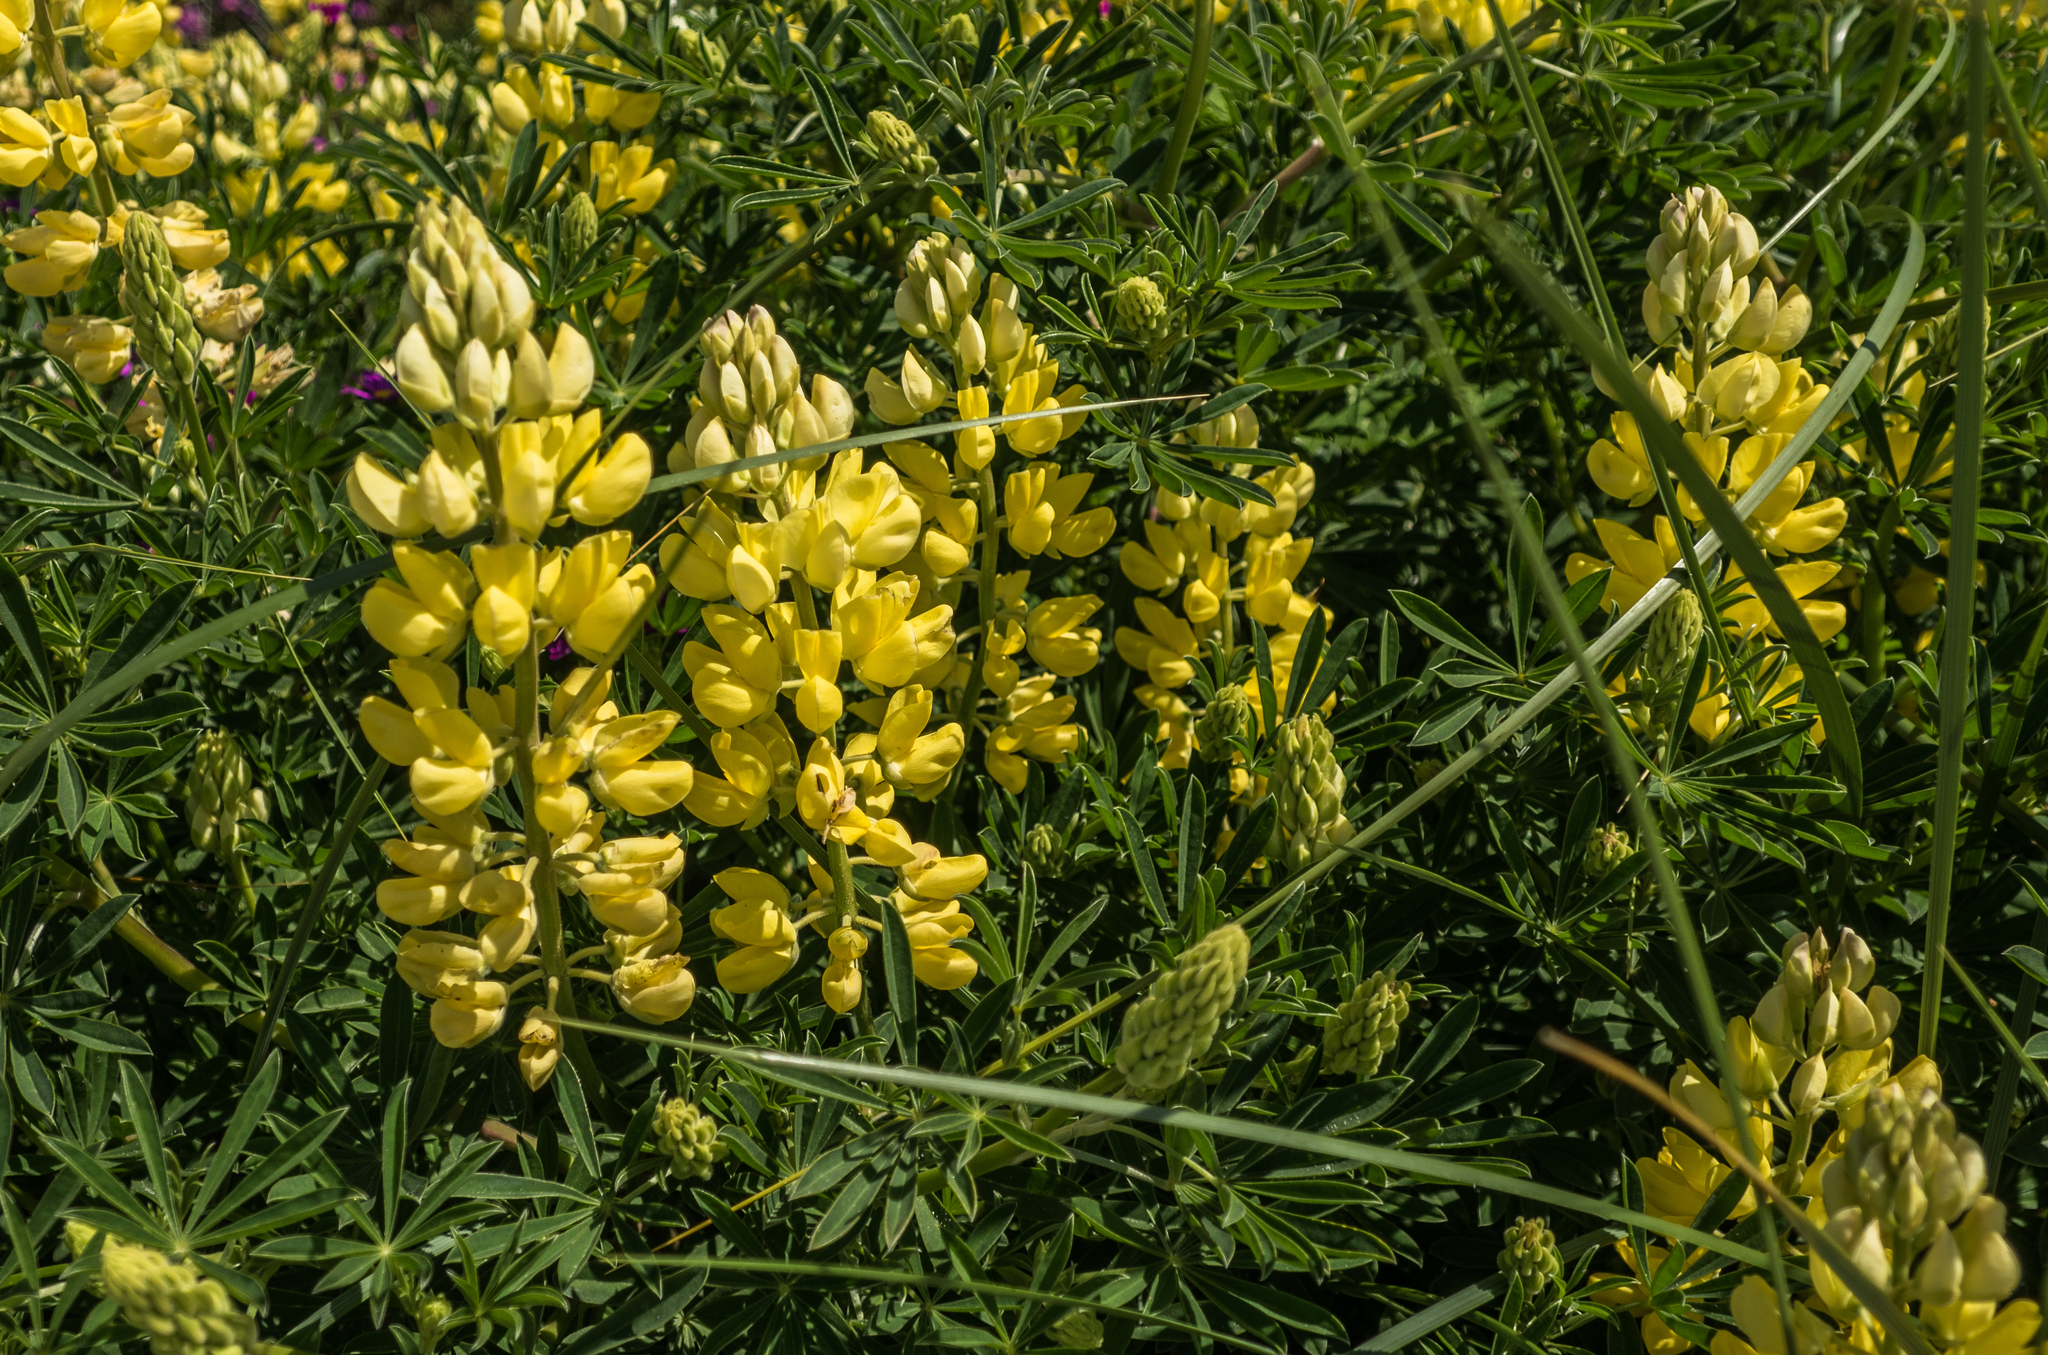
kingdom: Plantae
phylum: Tracheophyta
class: Magnoliopsida
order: Fabales
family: Fabaceae
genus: Lupinus
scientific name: Lupinus arboreus
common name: Yellow bush lupine
